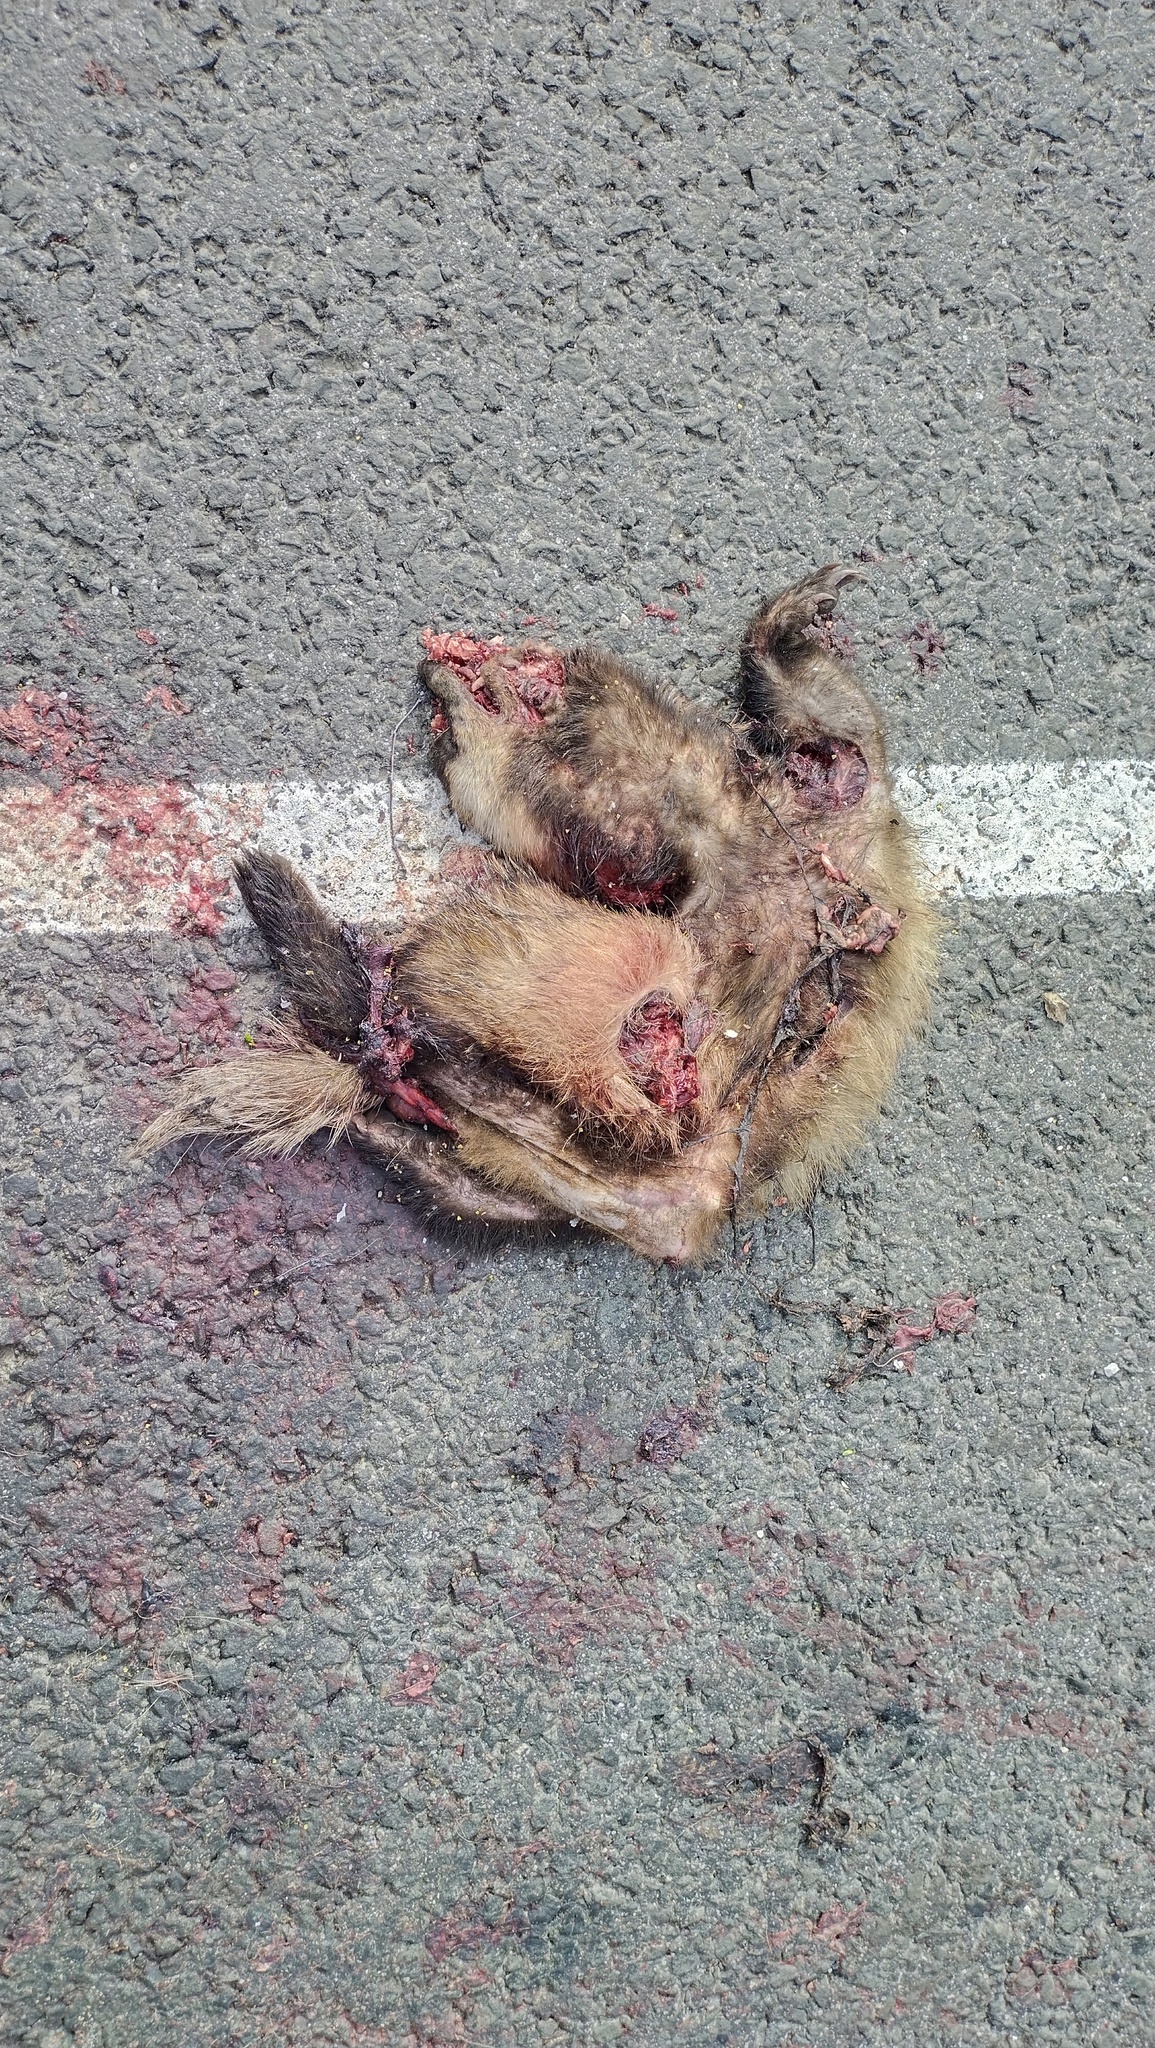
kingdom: Animalia
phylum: Chordata
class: Mammalia
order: Carnivora
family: Mustelidae
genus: Meles
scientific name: Meles leucurus
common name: Asian badger
